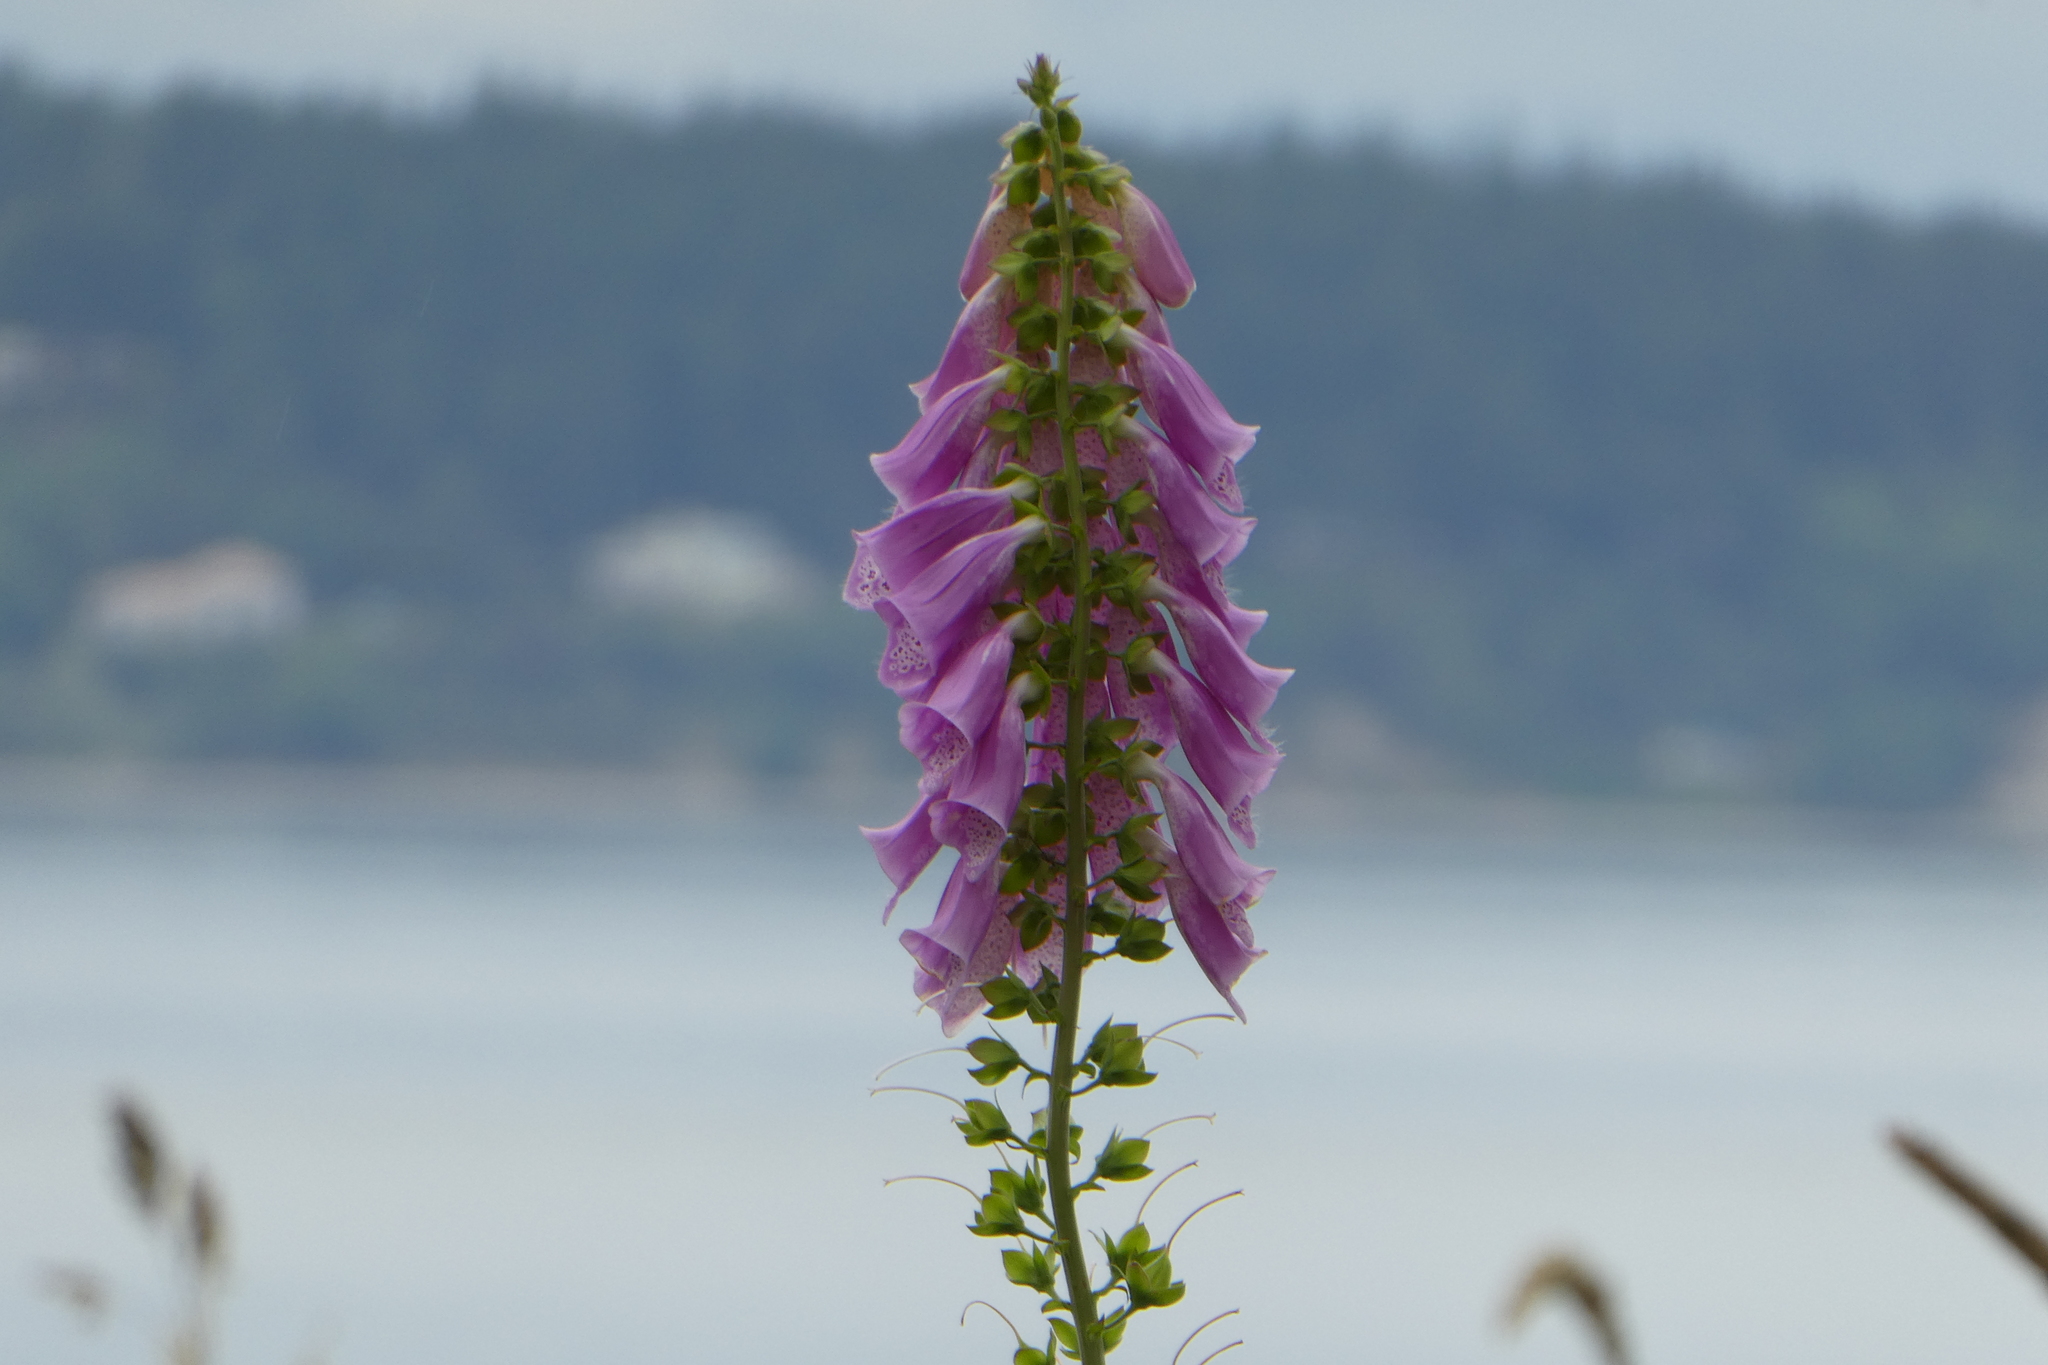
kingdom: Plantae
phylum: Tracheophyta
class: Magnoliopsida
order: Lamiales
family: Plantaginaceae
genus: Digitalis
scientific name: Digitalis purpurea
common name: Foxglove
